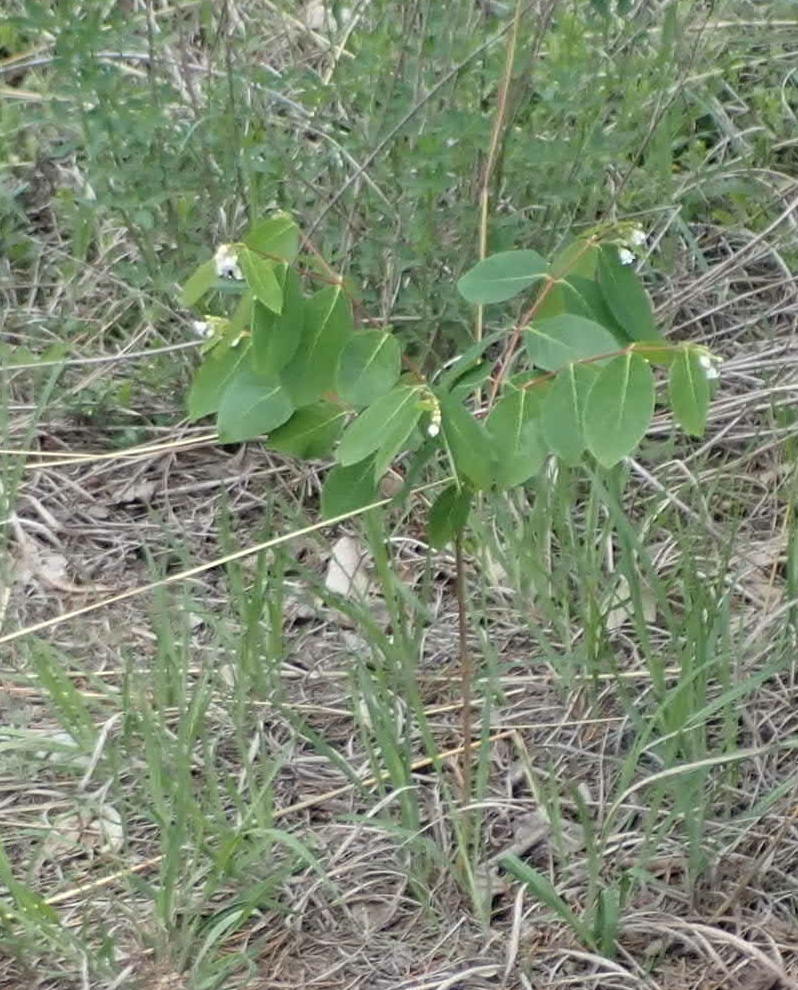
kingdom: Plantae
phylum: Tracheophyta
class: Magnoliopsida
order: Gentianales
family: Apocynaceae
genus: Apocynum
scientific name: Apocynum androsaemifolium
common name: Spreading dogbane
